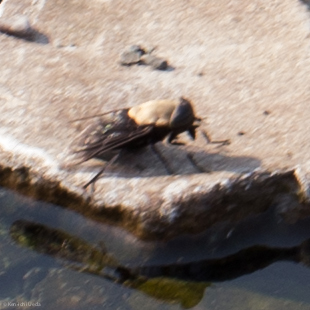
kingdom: Animalia
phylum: Arthropoda
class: Insecta
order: Diptera
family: Tabanidae
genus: Tabanus
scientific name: Tabanus punctifer
